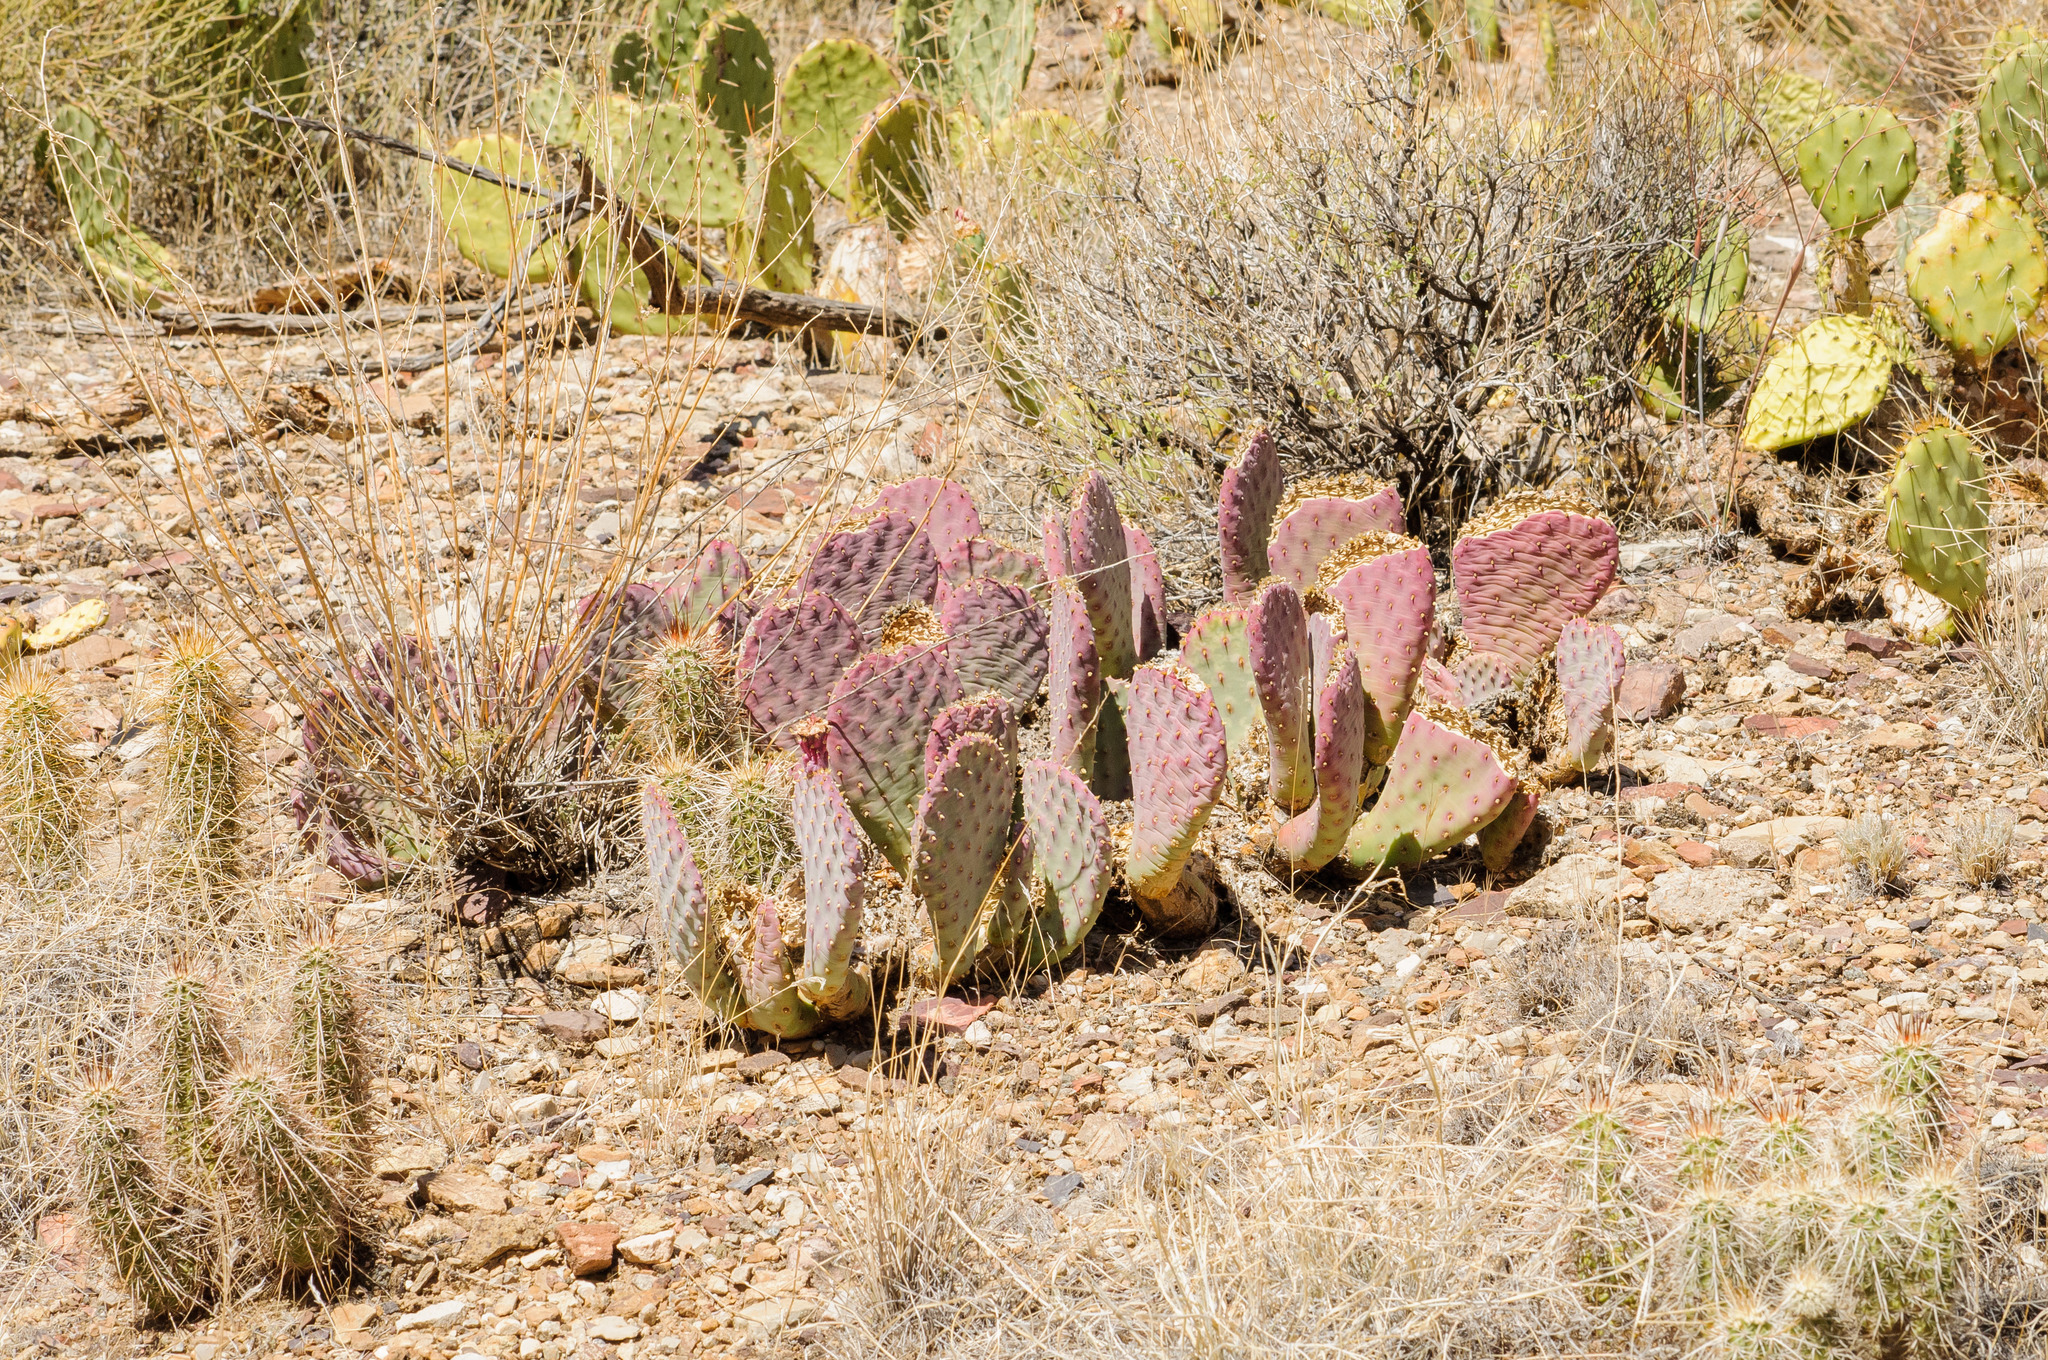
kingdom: Plantae
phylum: Tracheophyta
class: Magnoliopsida
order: Caryophyllales
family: Cactaceae
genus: Opuntia
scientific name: Opuntia basilaris
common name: Beavertail prickly-pear
